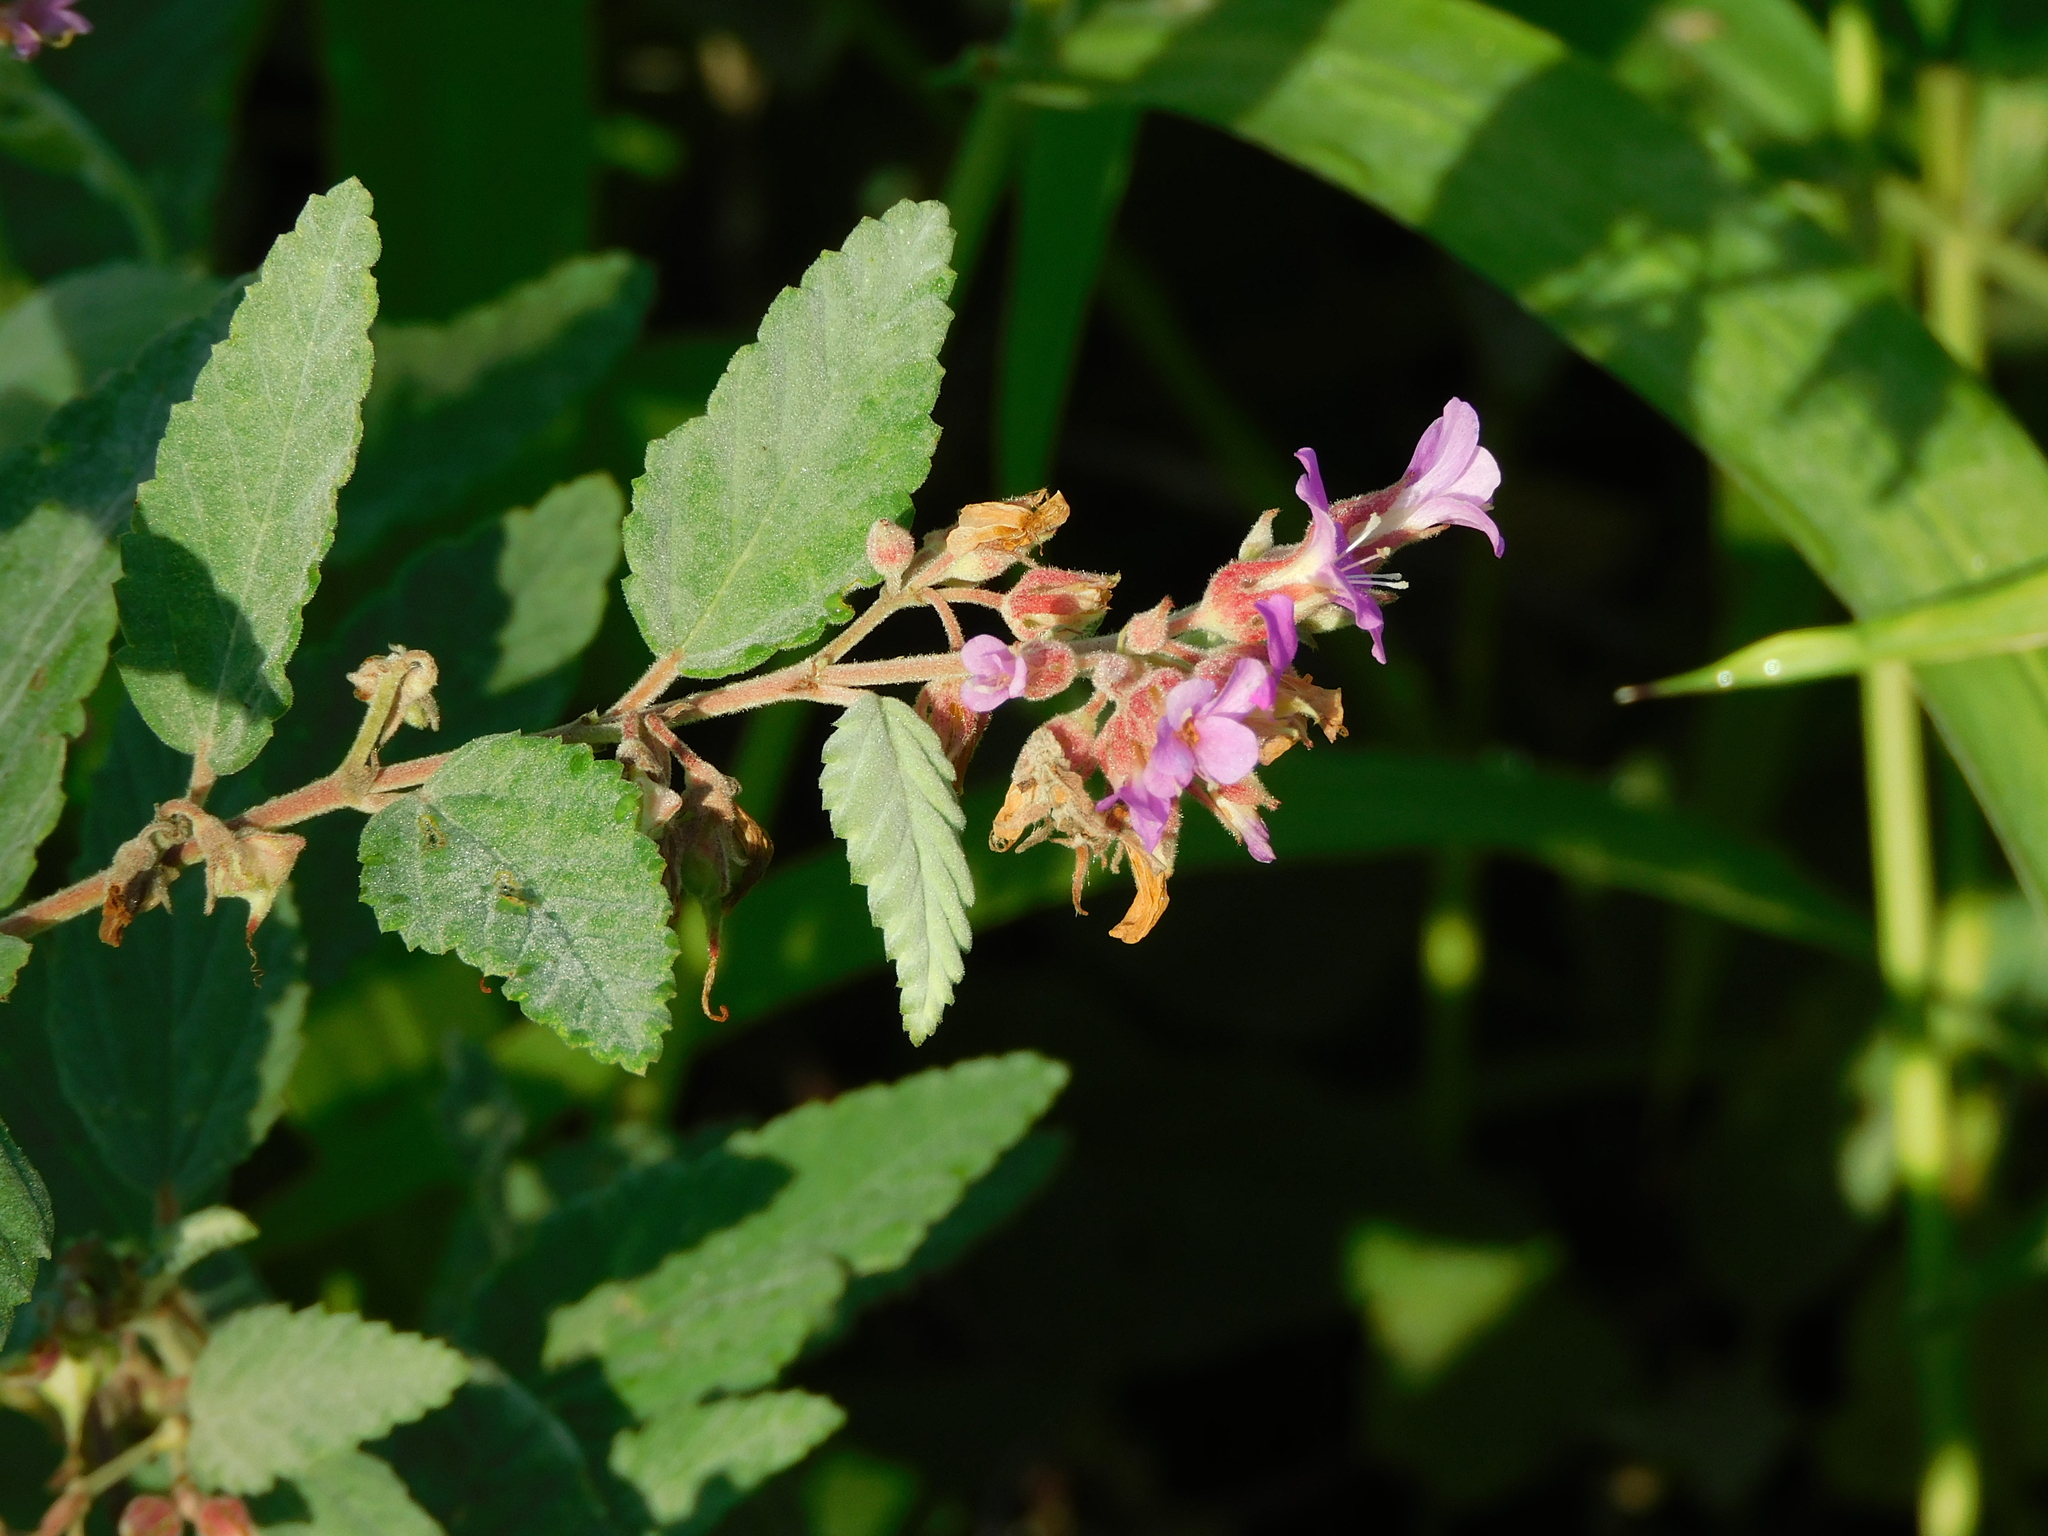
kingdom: Plantae
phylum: Tracheophyta
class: Magnoliopsida
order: Malvales
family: Malvaceae
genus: Melochia
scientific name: Melochia tomentosa
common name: Black torch
